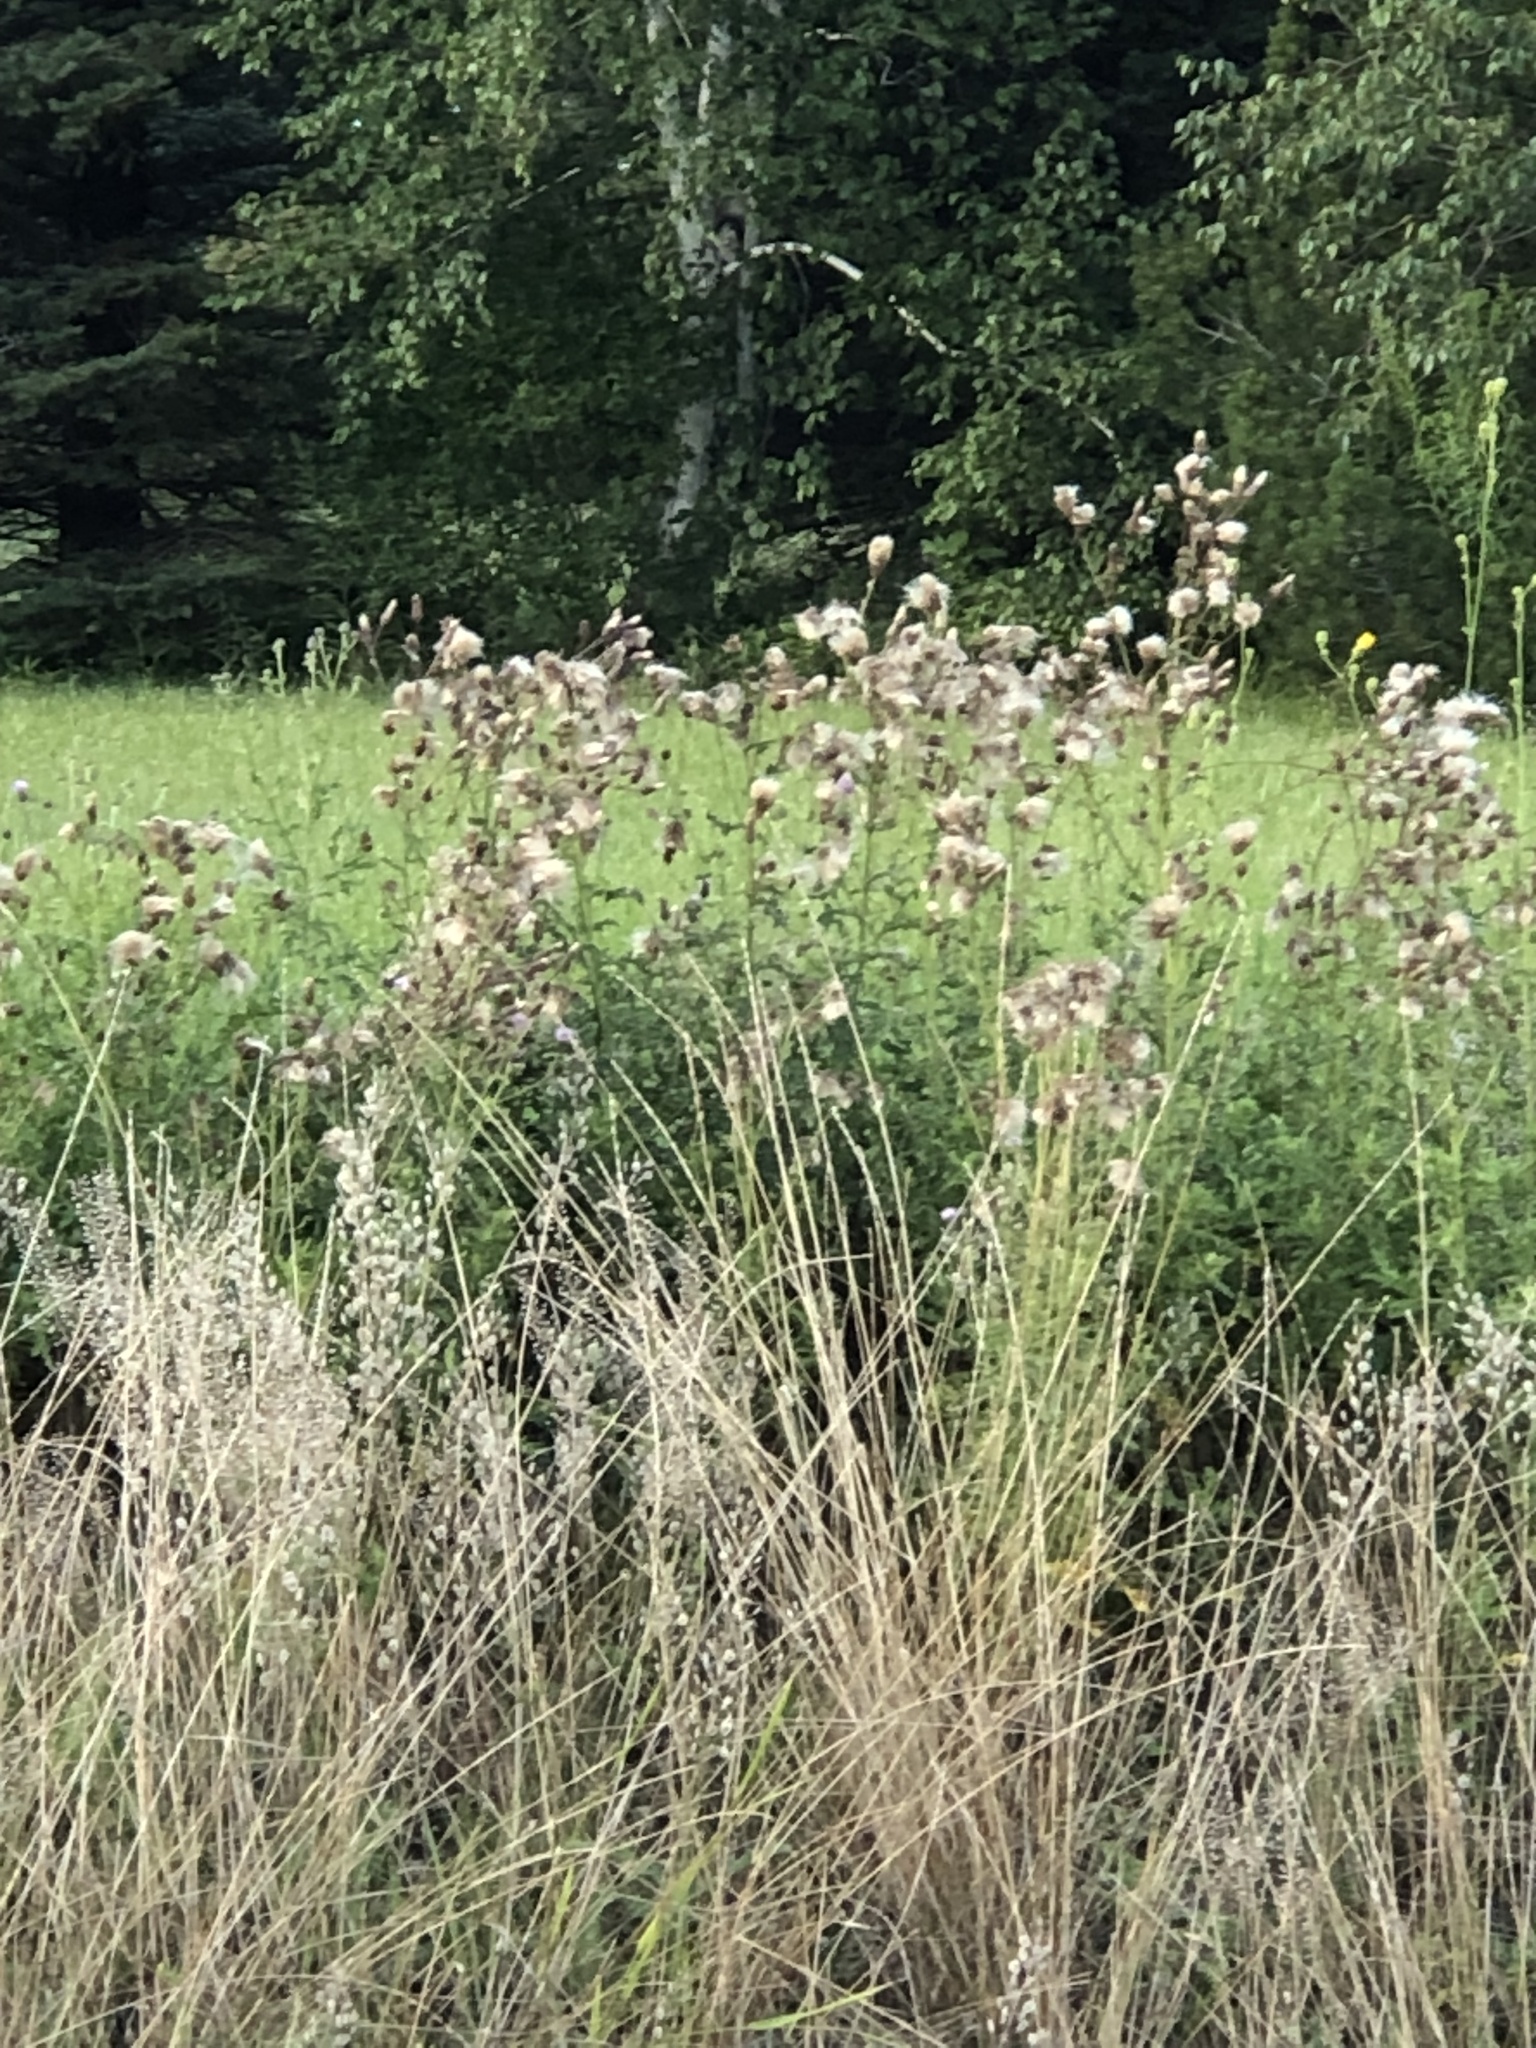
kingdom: Plantae
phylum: Tracheophyta
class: Magnoliopsida
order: Asterales
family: Asteraceae
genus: Cirsium
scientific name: Cirsium arvense
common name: Creeping thistle
